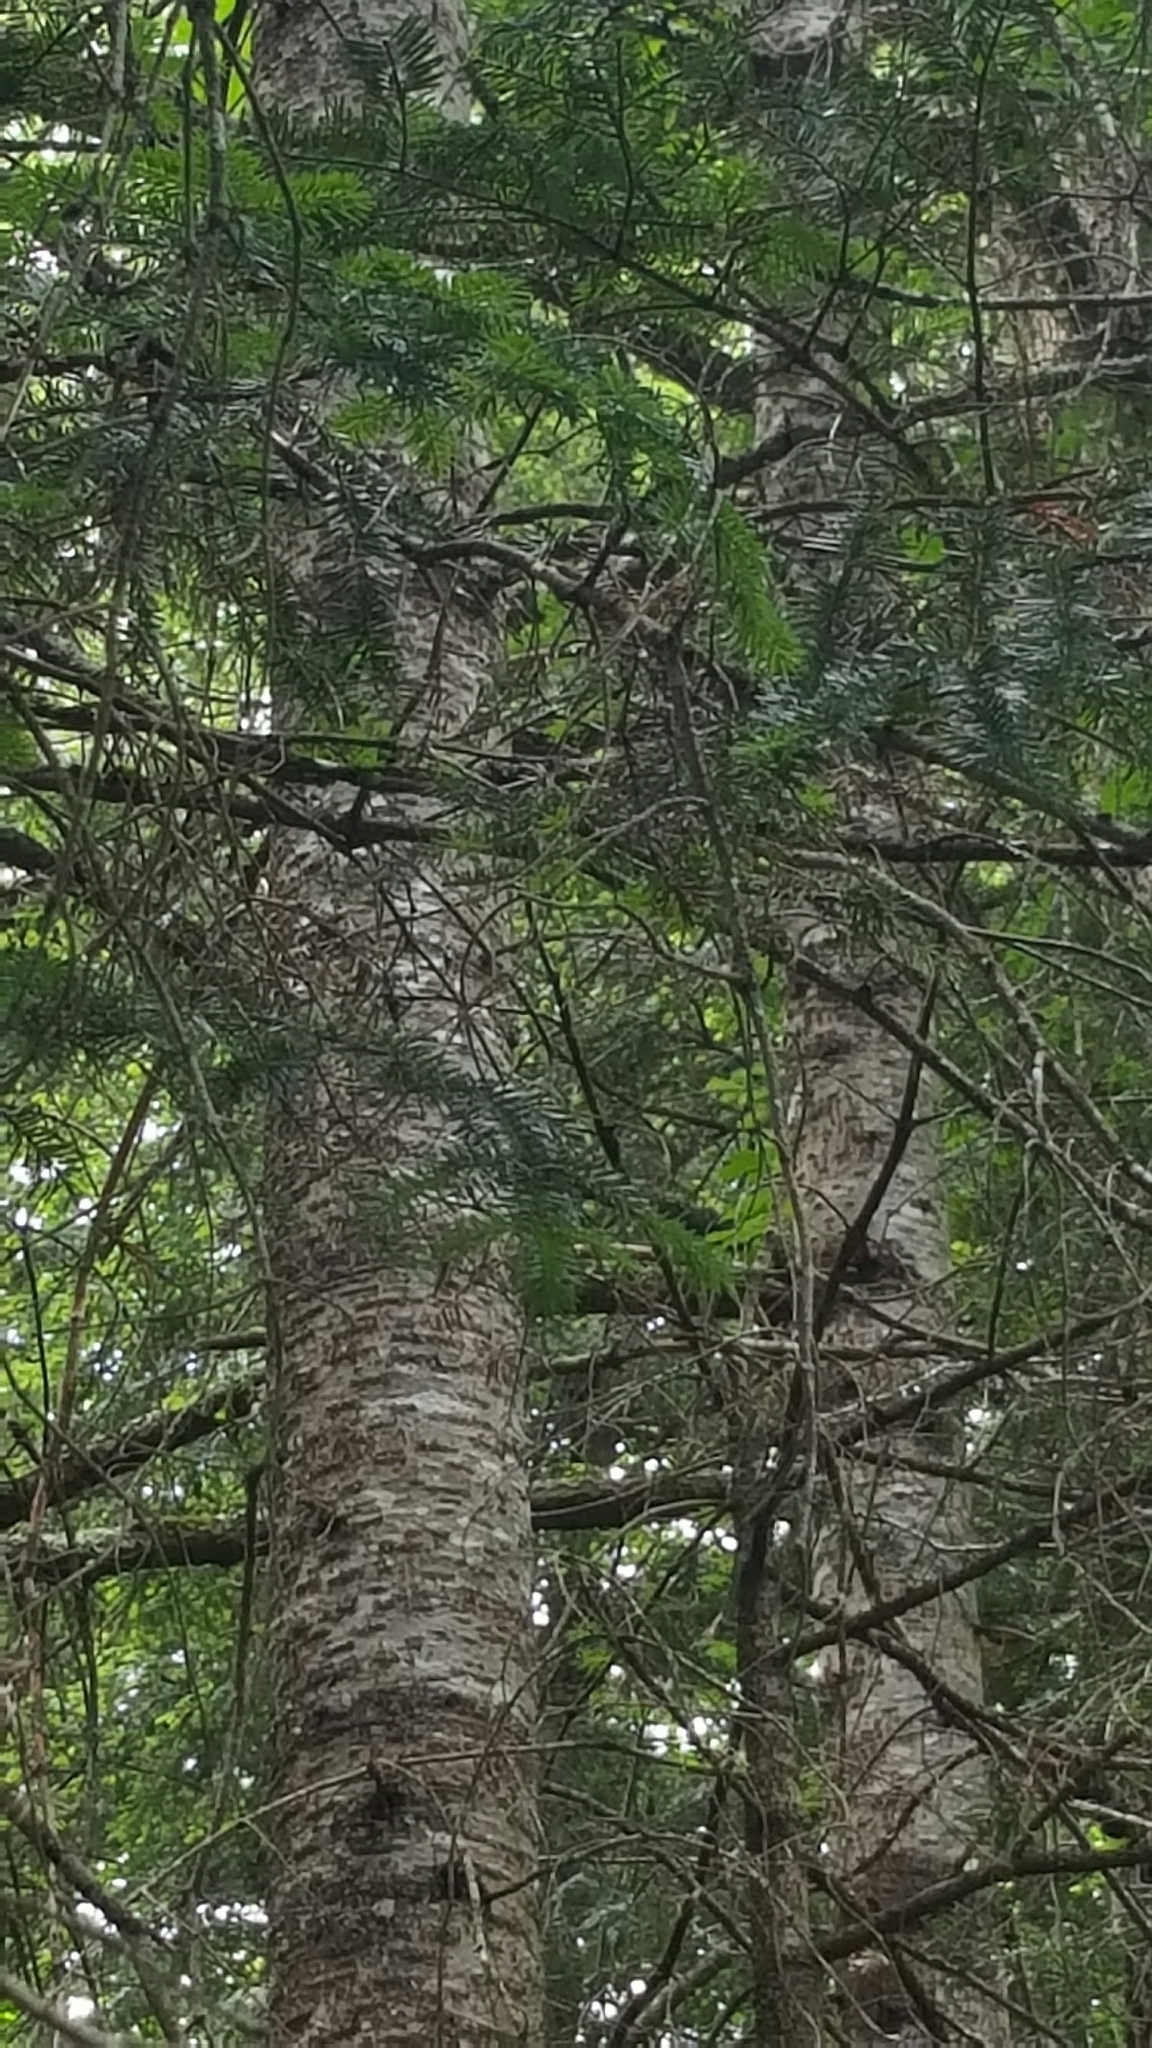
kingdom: Plantae
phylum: Tracheophyta
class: Pinopsida
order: Pinales
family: Pinaceae
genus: Abies
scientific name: Abies balsamea
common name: Balsam fir
